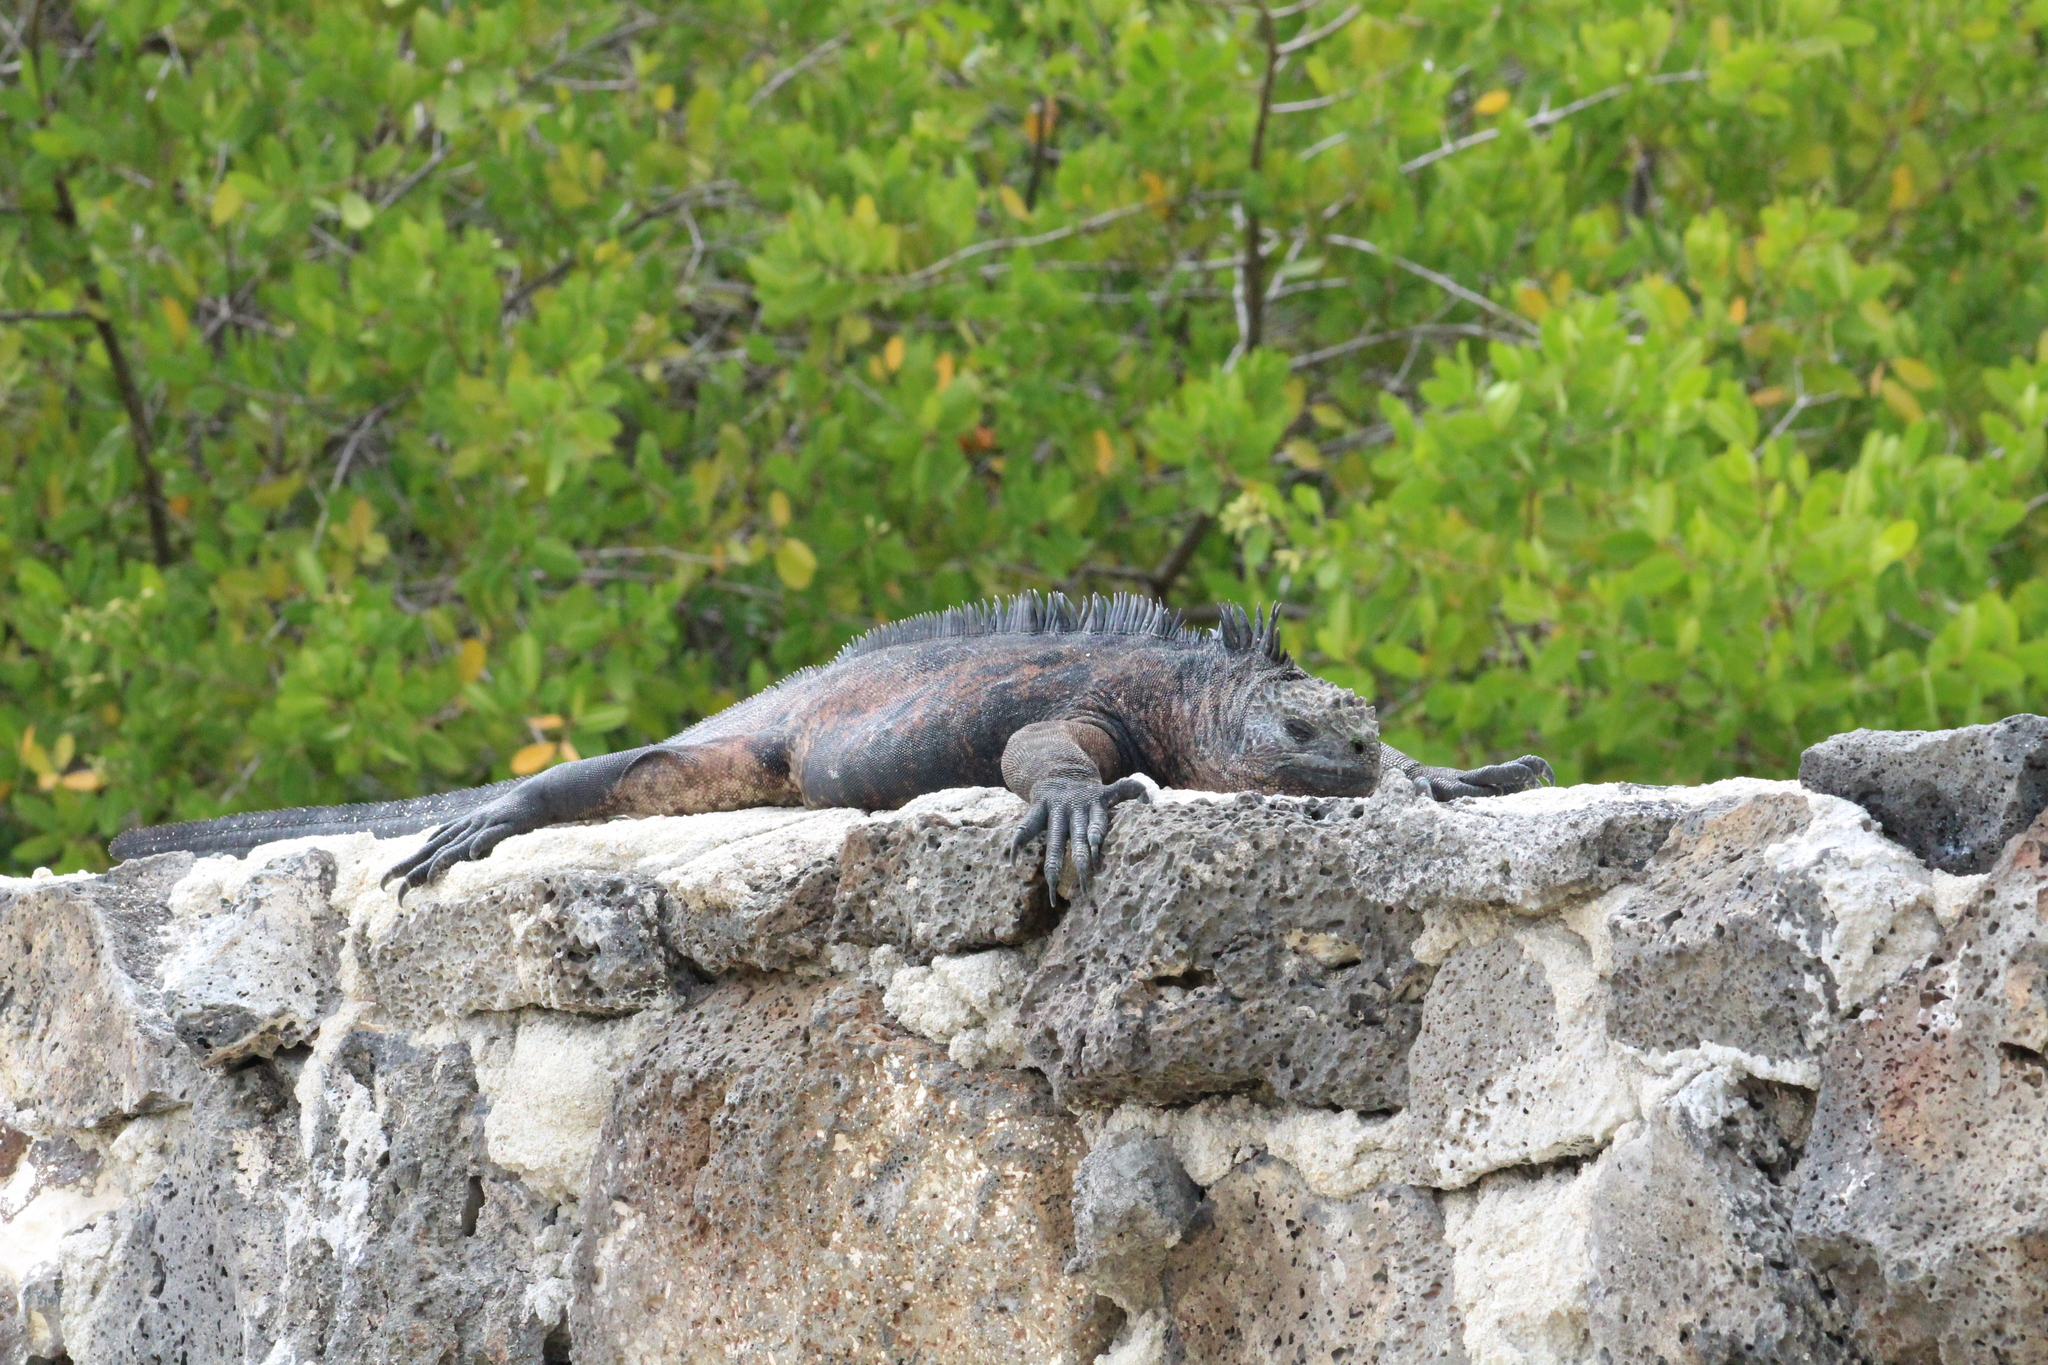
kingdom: Animalia
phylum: Chordata
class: Squamata
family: Iguanidae
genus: Amblyrhynchus
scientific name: Amblyrhynchus cristatus
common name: Marine iguana
